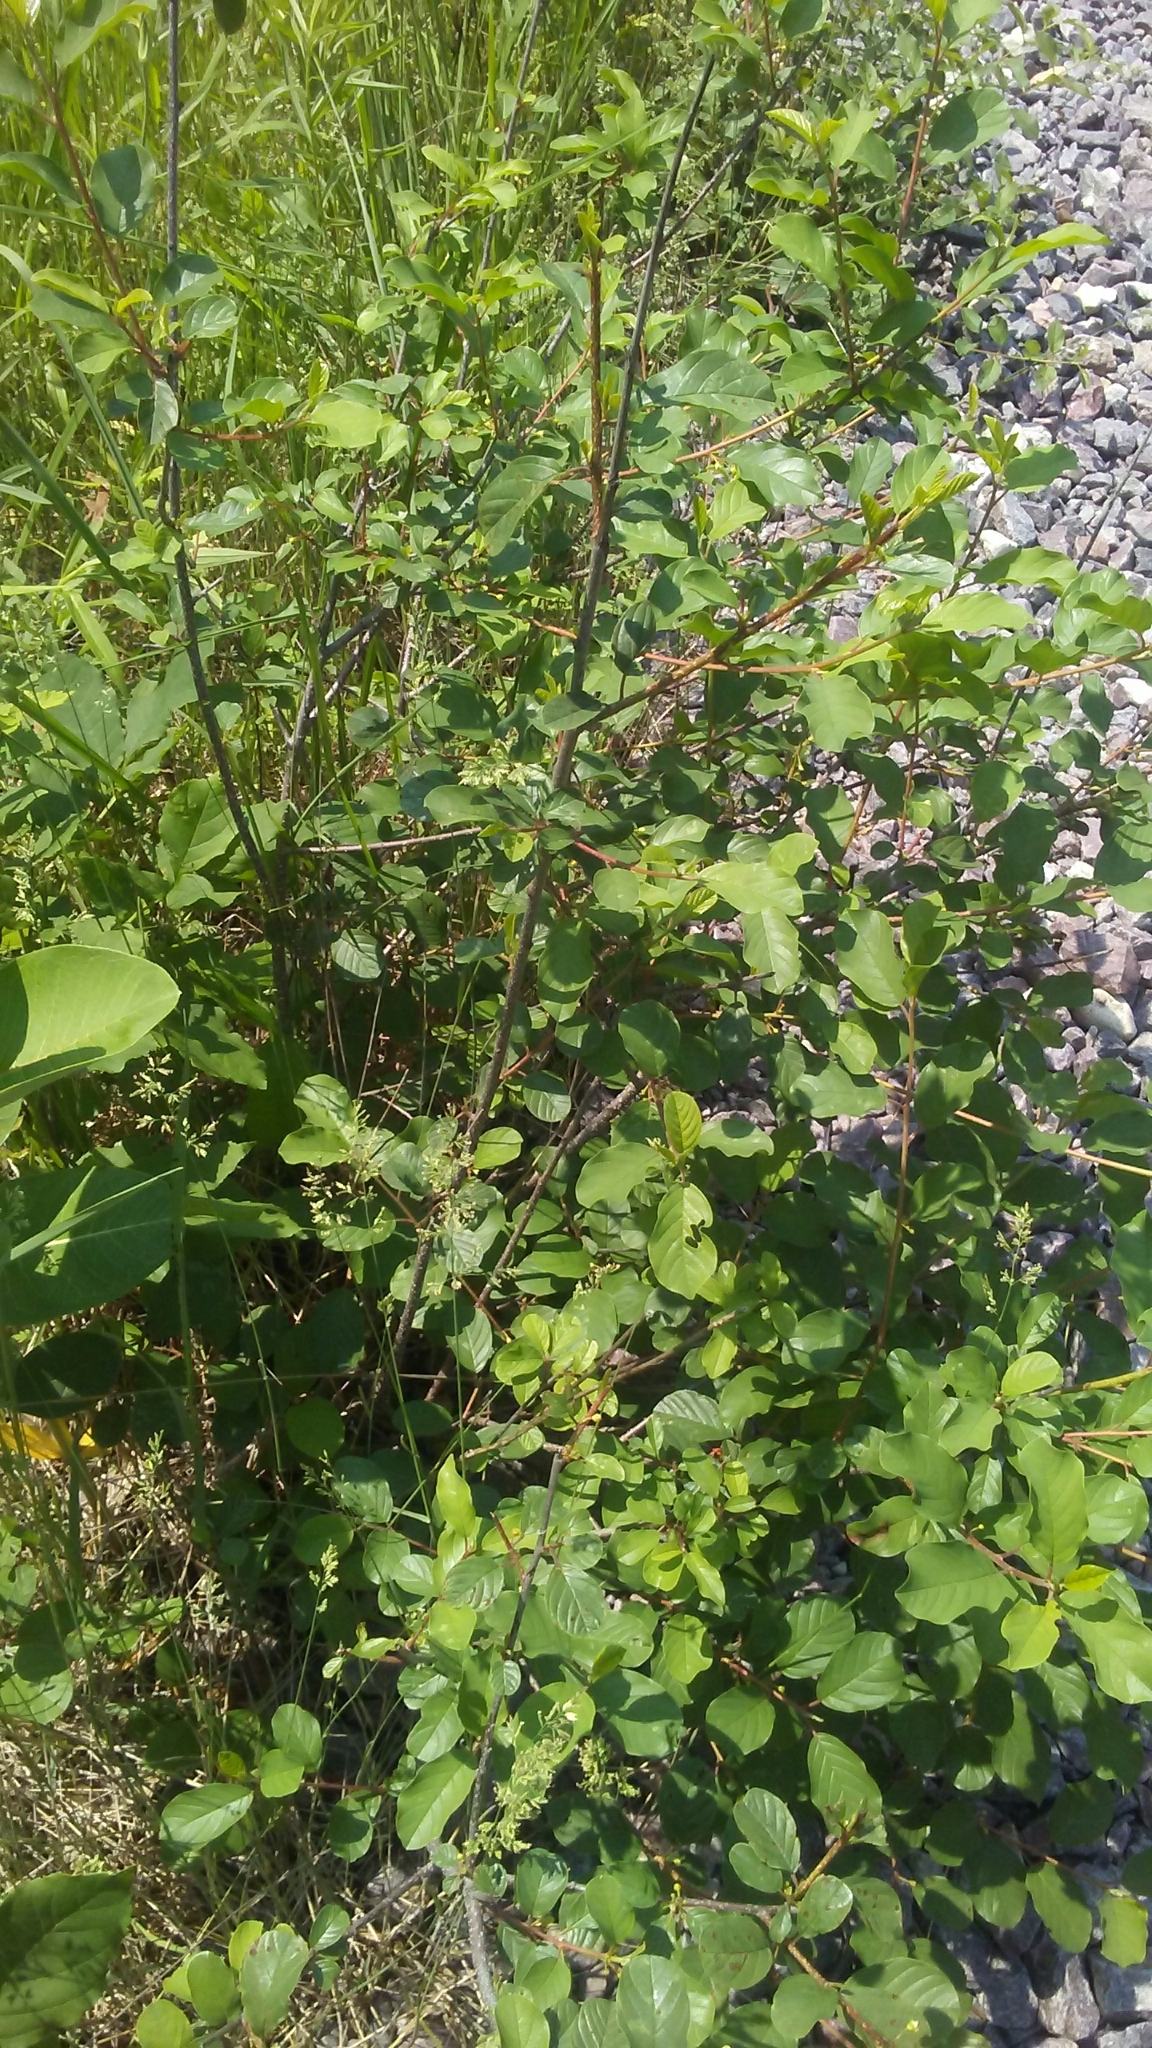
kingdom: Plantae
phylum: Tracheophyta
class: Magnoliopsida
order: Rosales
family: Rhamnaceae
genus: Frangula
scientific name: Frangula alnus
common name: Alder buckthorn
